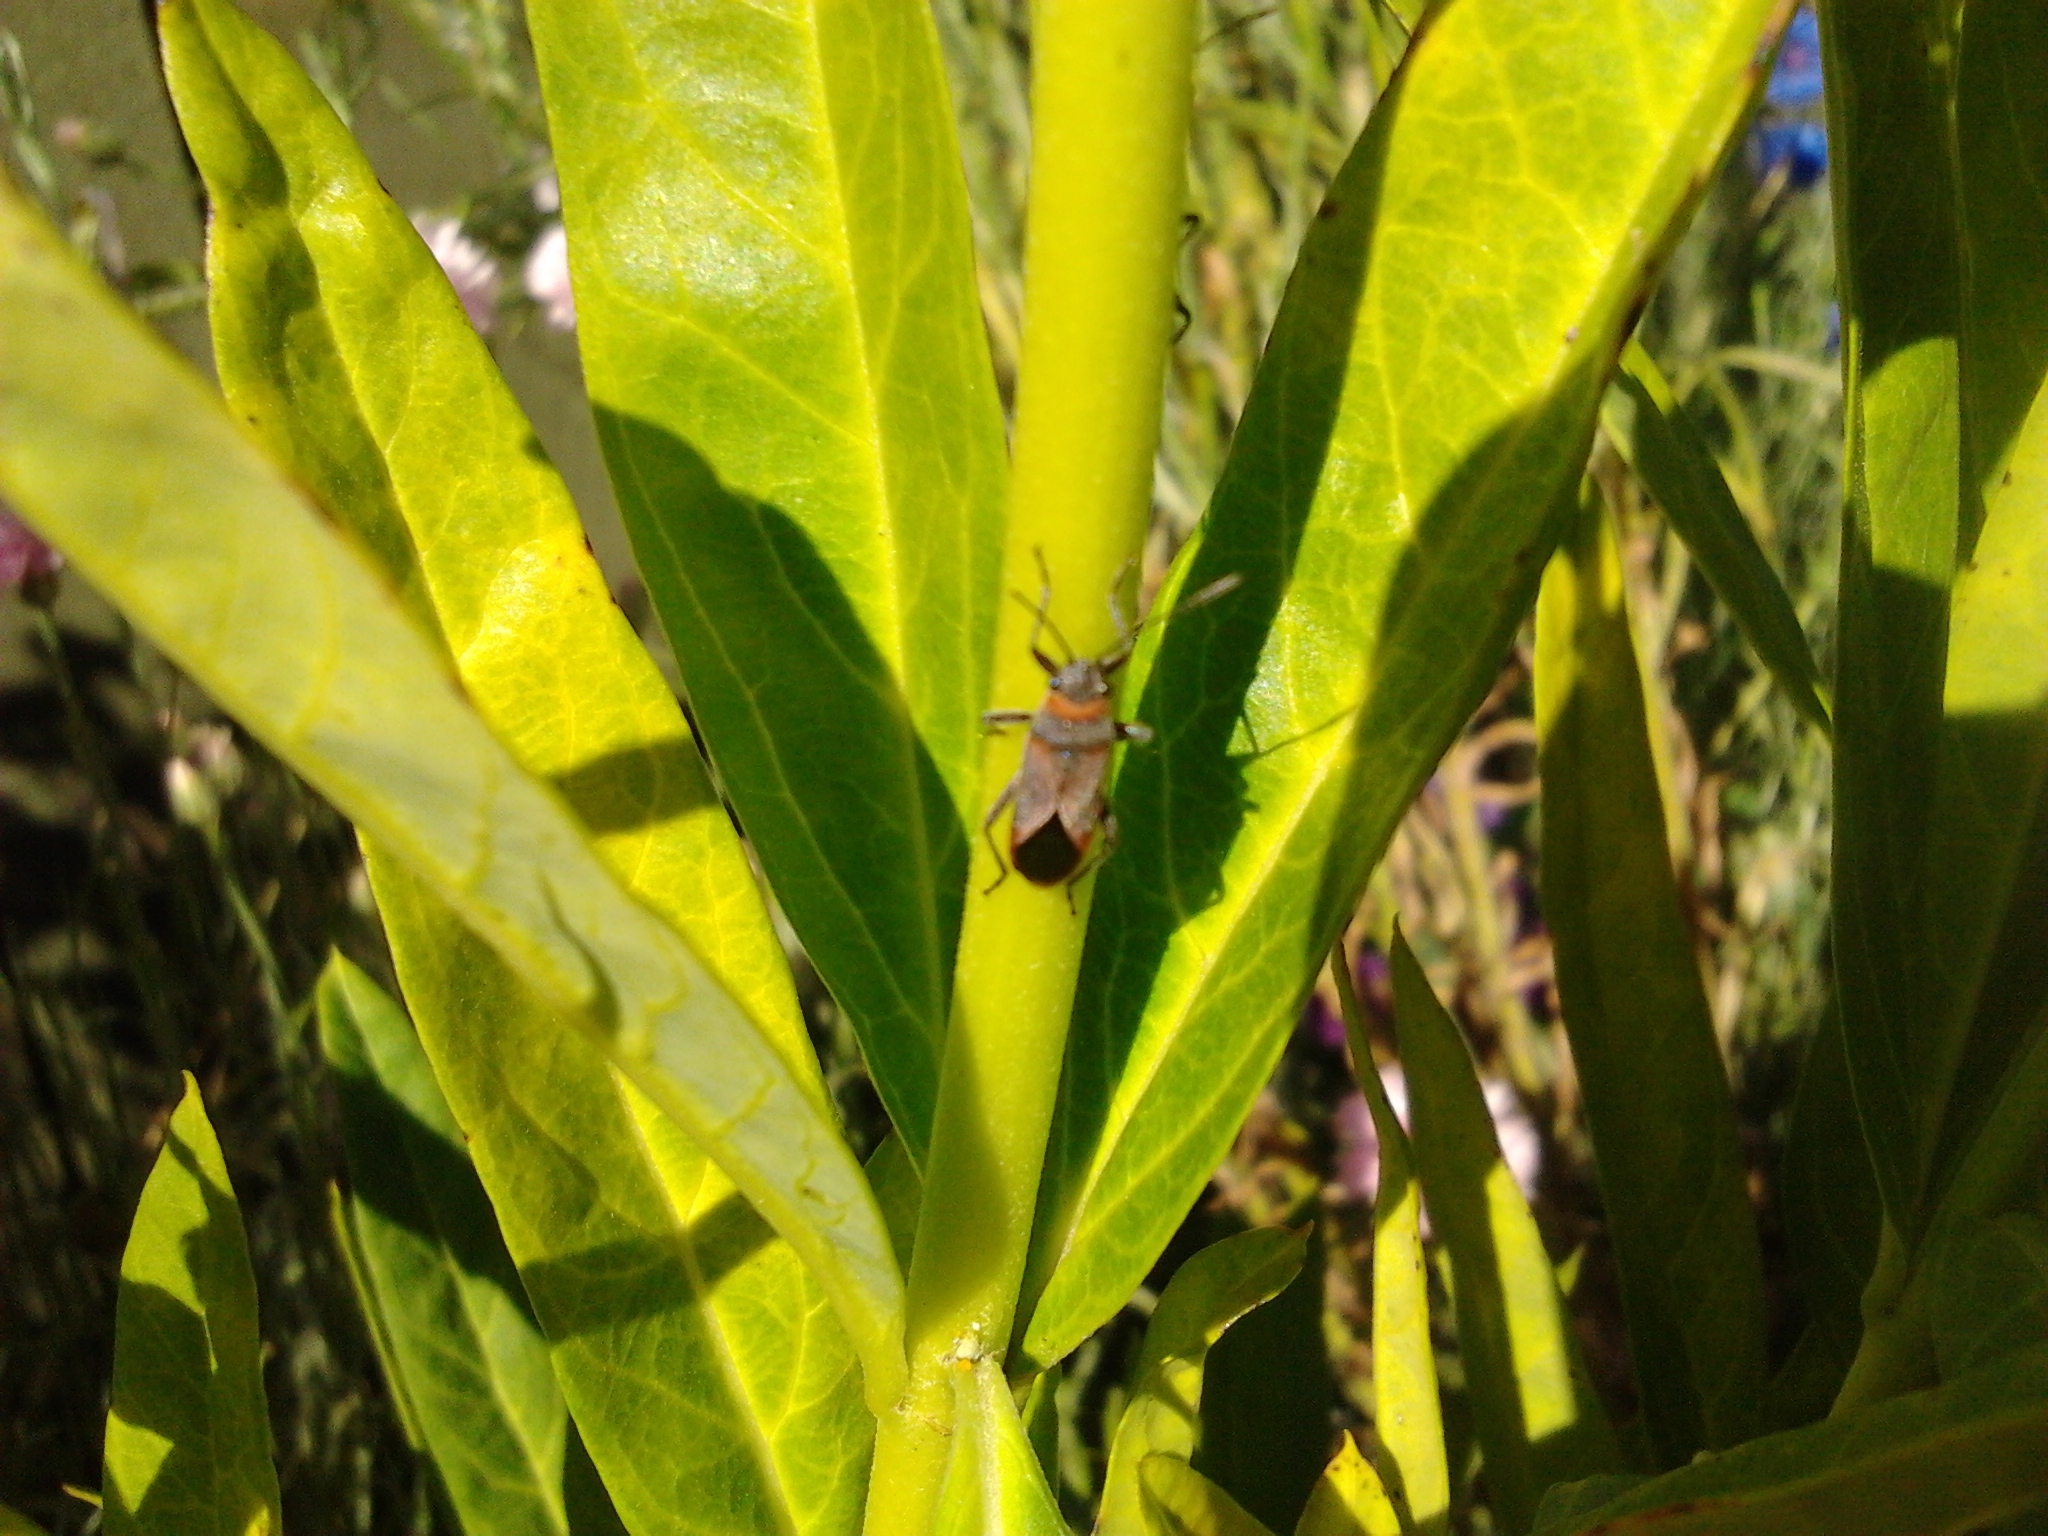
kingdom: Animalia
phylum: Arthropoda
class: Insecta
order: Hemiptera
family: Lygaeidae
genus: Arocatus
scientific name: Arocatus rusticus
